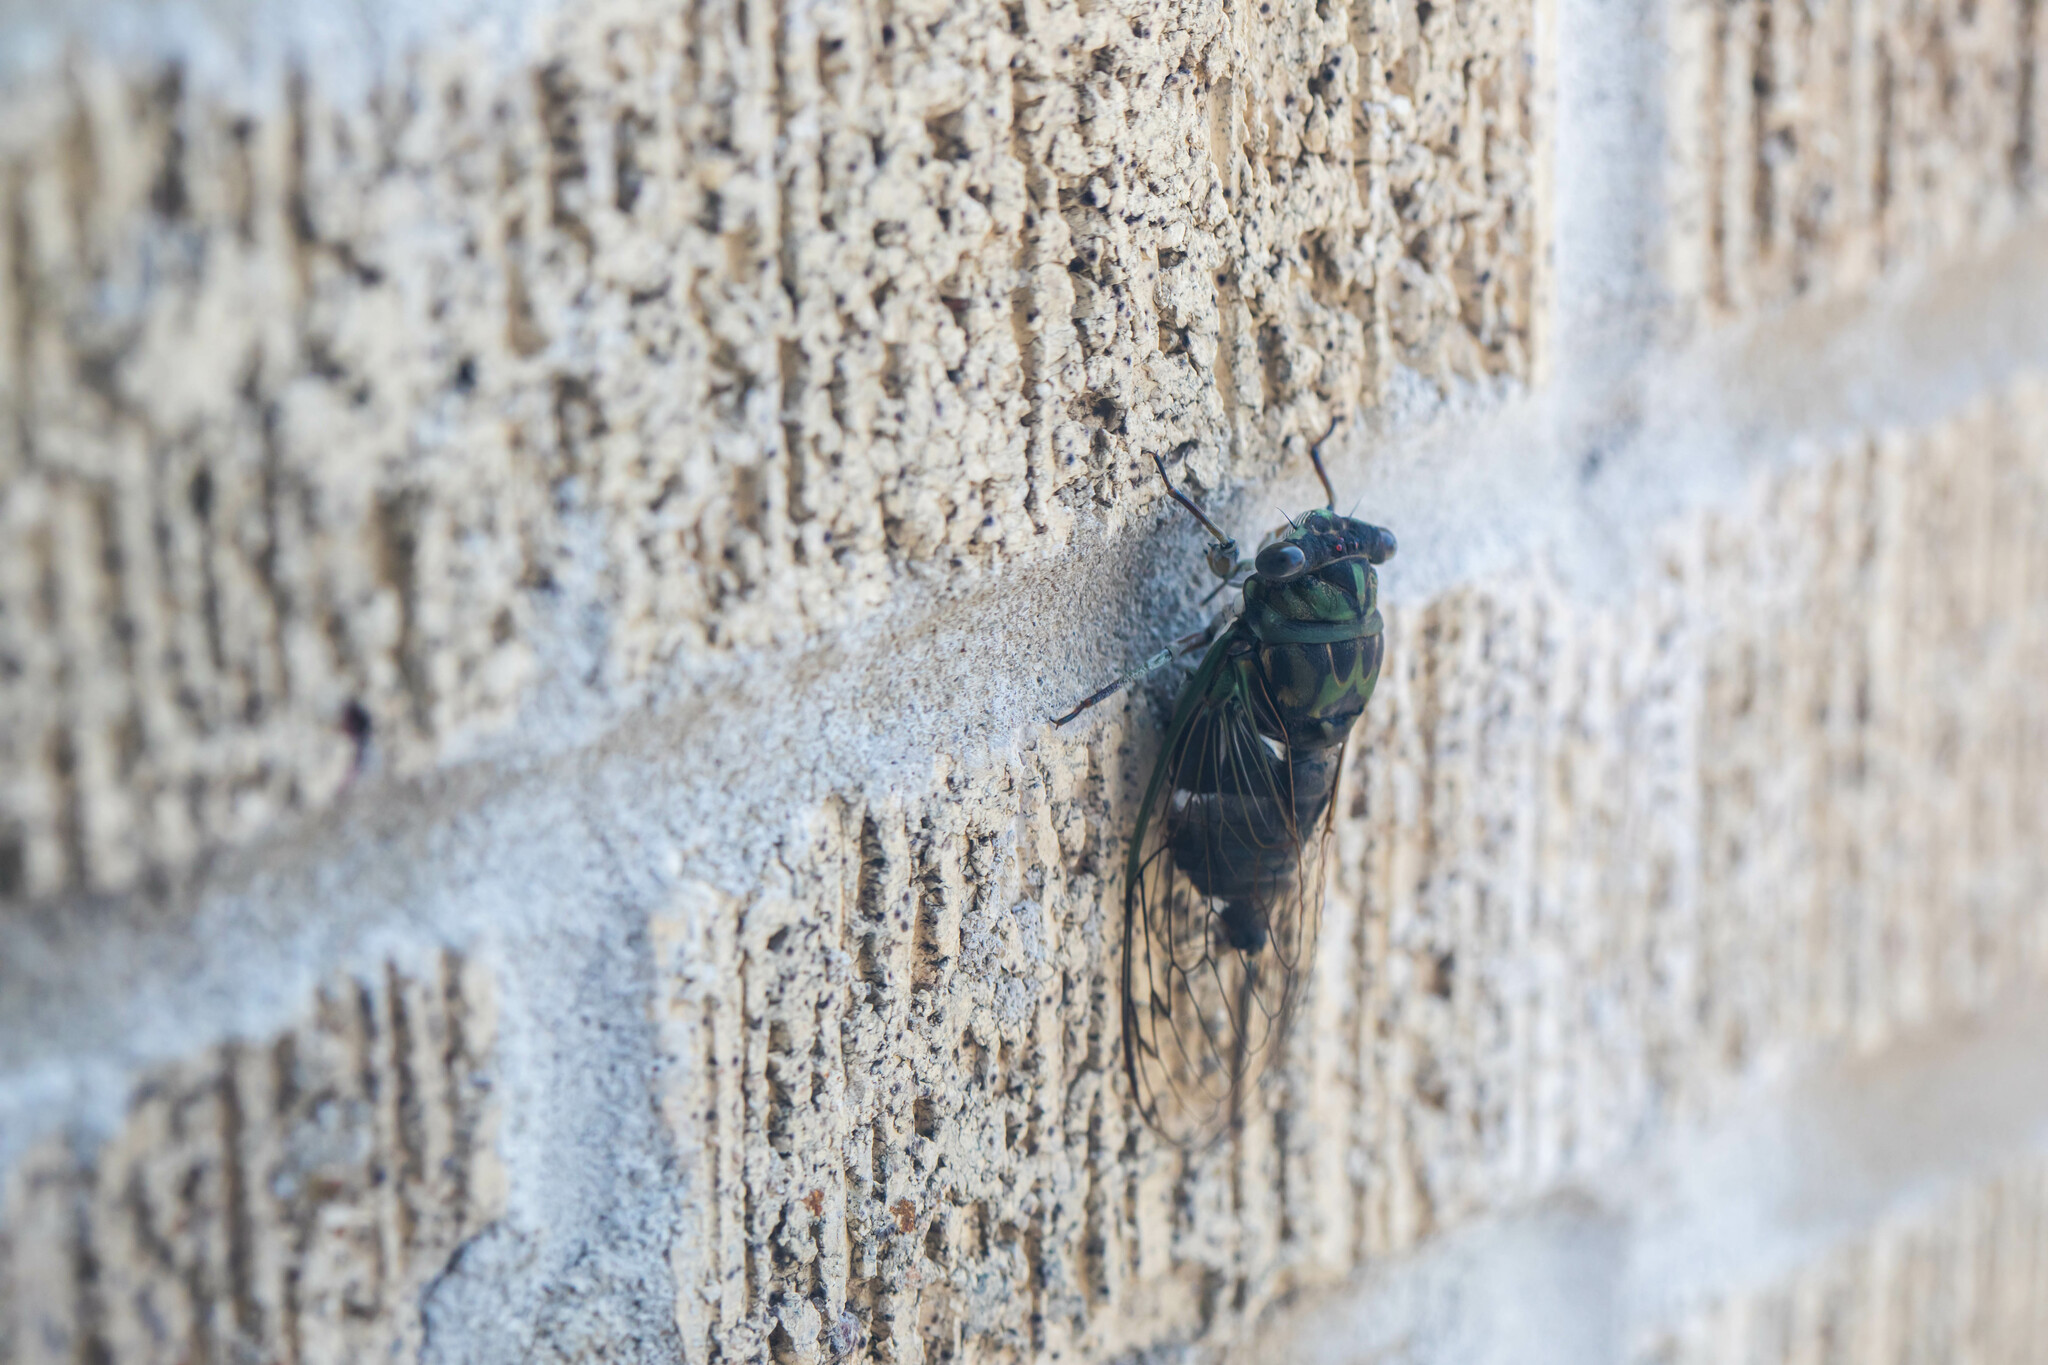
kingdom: Animalia
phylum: Arthropoda
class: Insecta
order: Hemiptera
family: Cicadidae
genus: Neotibicen
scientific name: Neotibicen pruinosus
